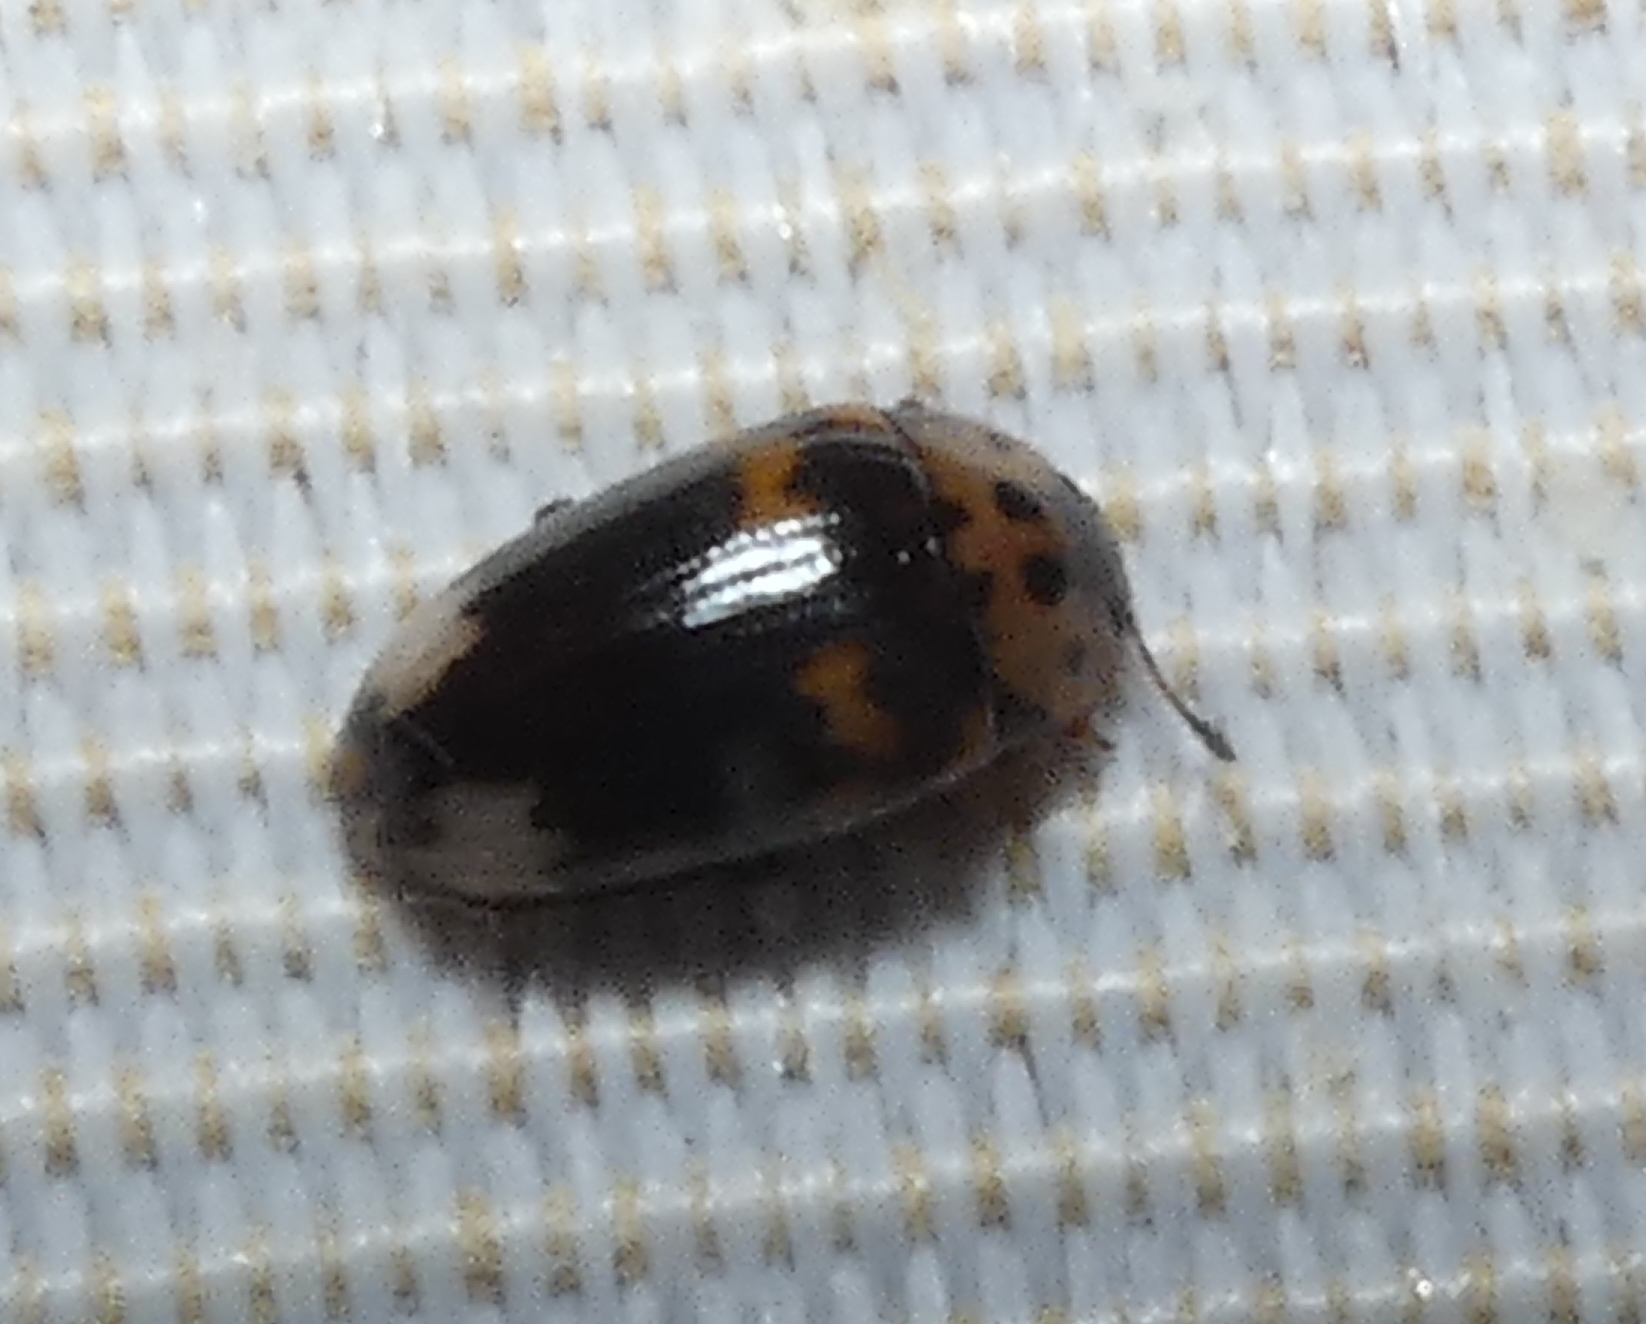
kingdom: Animalia
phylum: Arthropoda
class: Insecta
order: Coleoptera
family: Erotylidae
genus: Ischyrus
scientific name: Ischyrus
